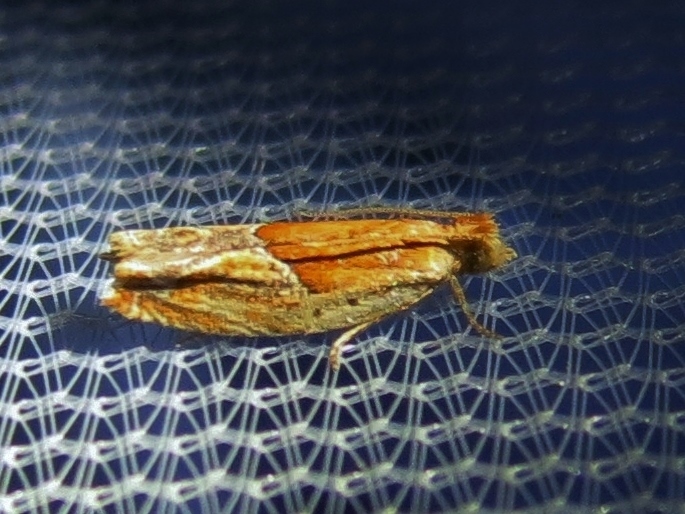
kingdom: Animalia
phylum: Arthropoda
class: Insecta
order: Lepidoptera
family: Tortricidae
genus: Ancylis
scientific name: Ancylis comptana
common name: Little roller
